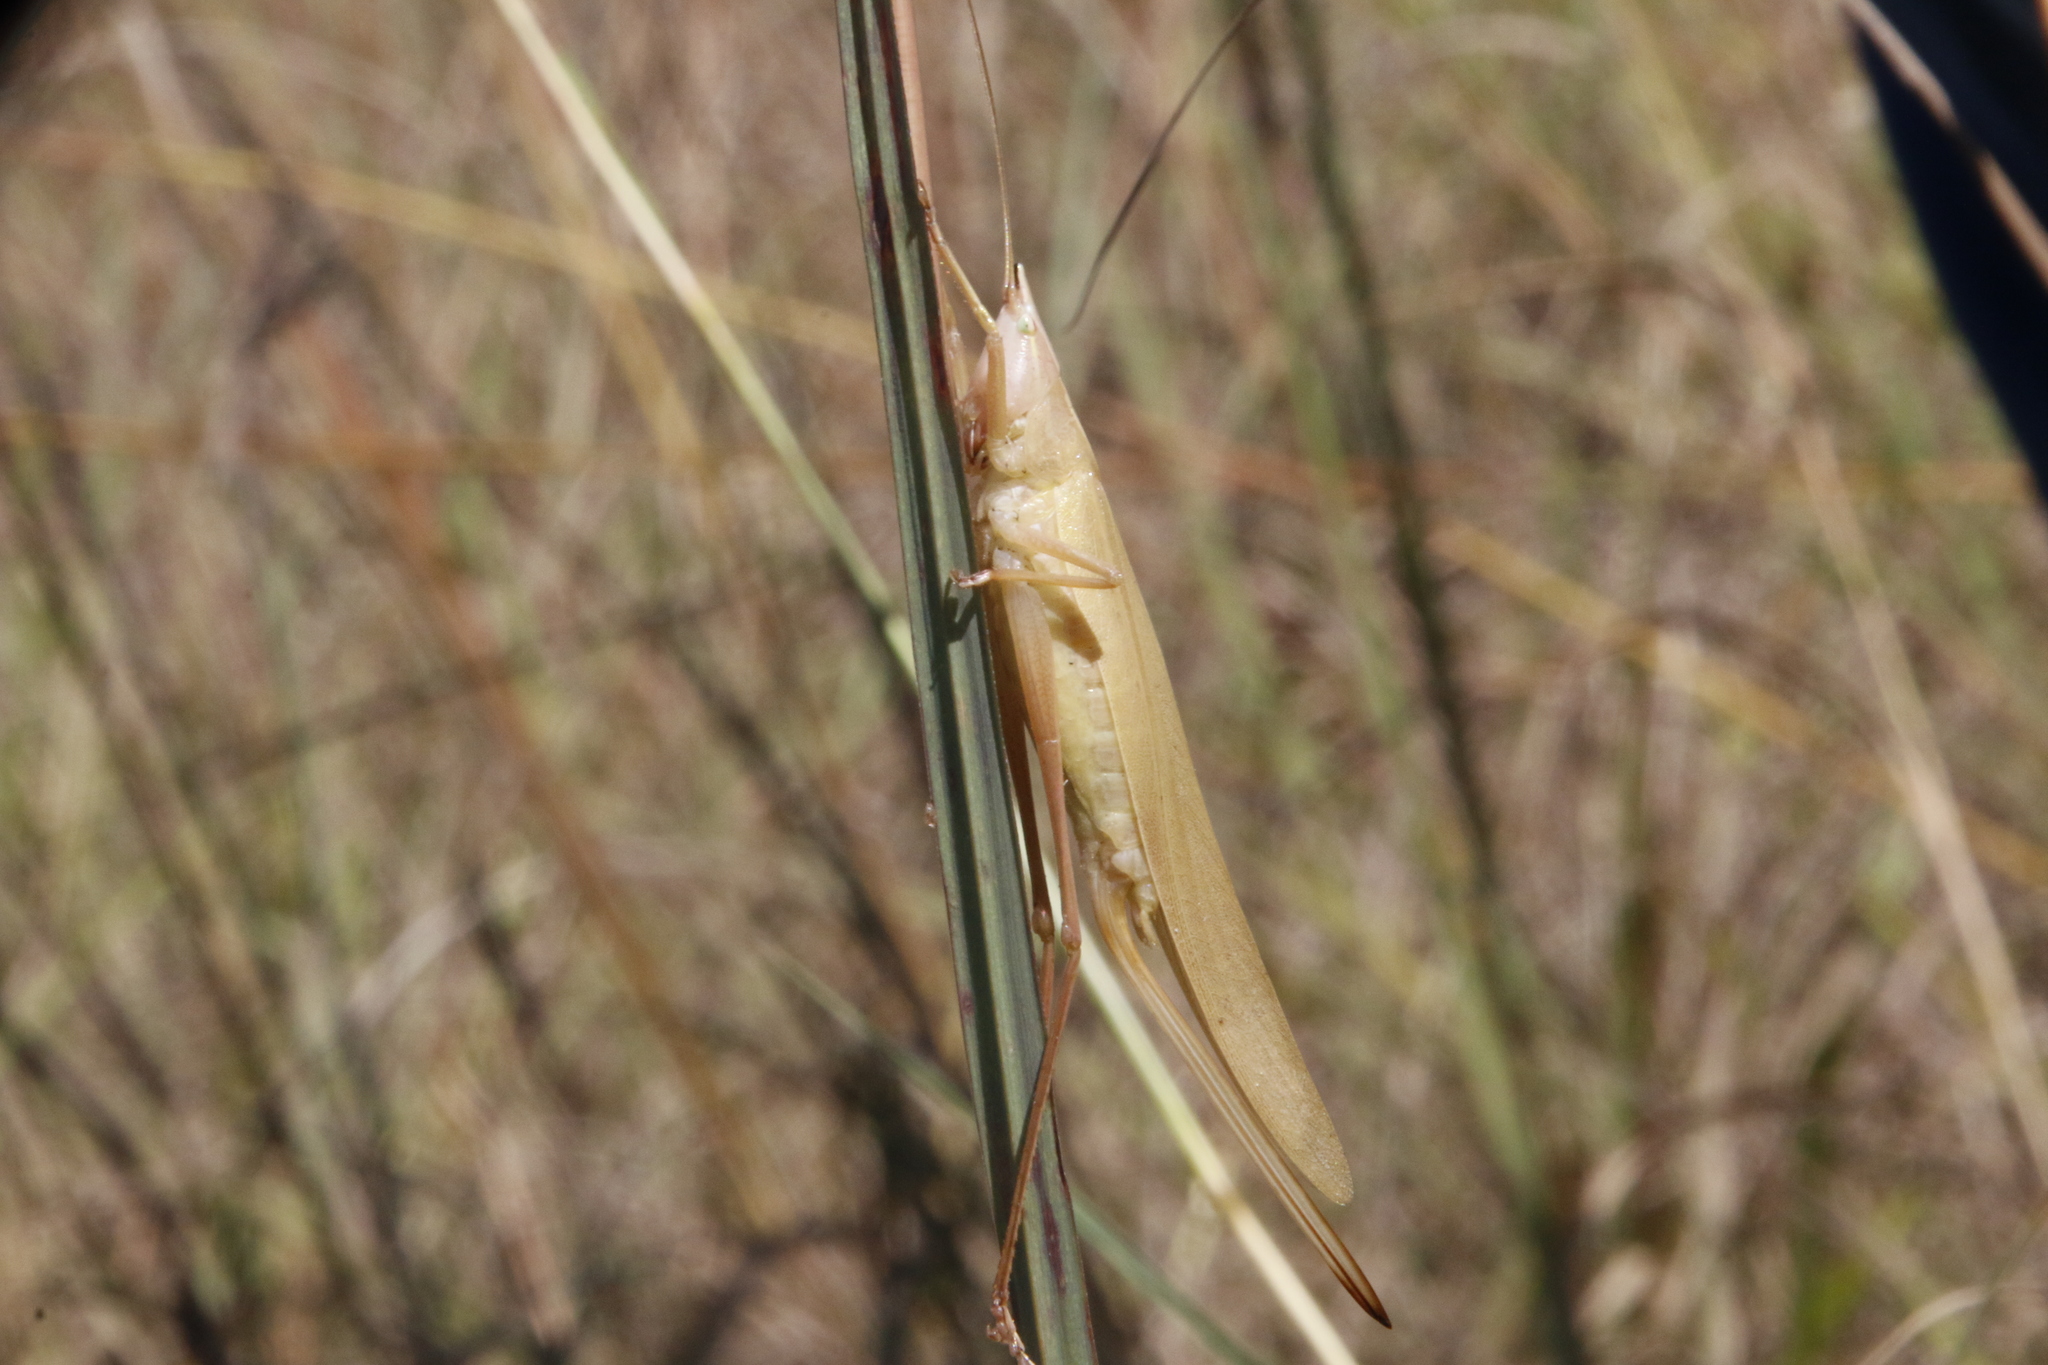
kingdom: Animalia
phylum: Arthropoda
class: Insecta
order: Orthoptera
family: Tettigoniidae
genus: Neoconocephalus
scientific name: Neoconocephalus ensiger
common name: Swordbearer
